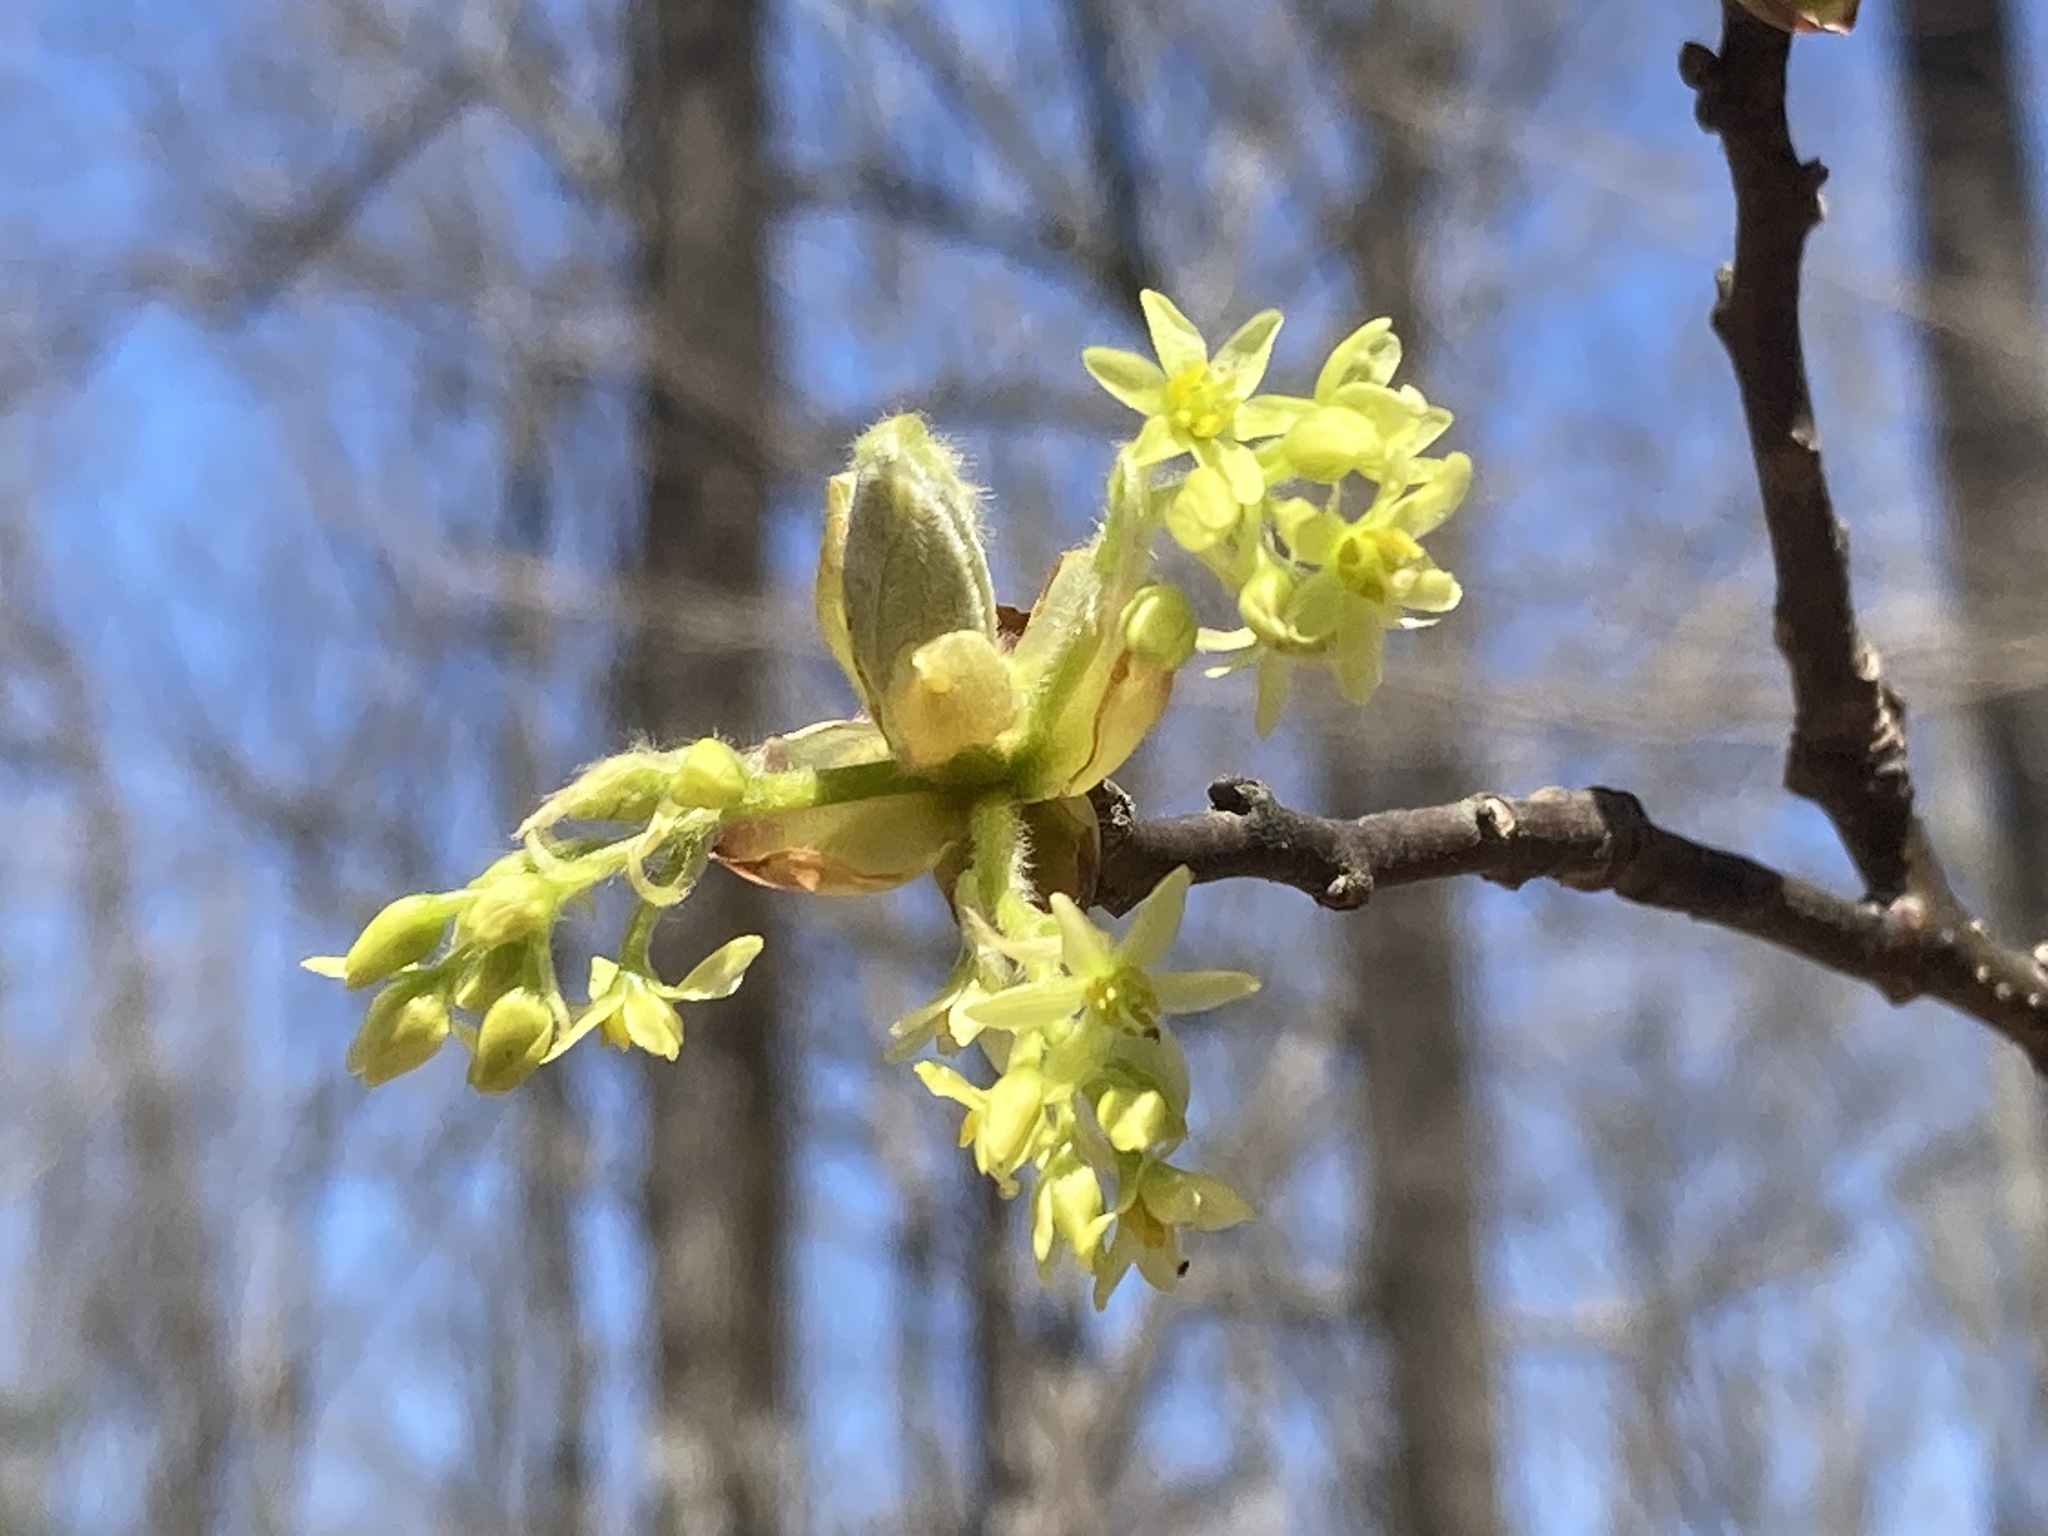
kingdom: Plantae
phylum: Tracheophyta
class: Magnoliopsida
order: Laurales
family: Lauraceae
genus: Sassafras
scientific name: Sassafras albidum
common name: Sassafras
